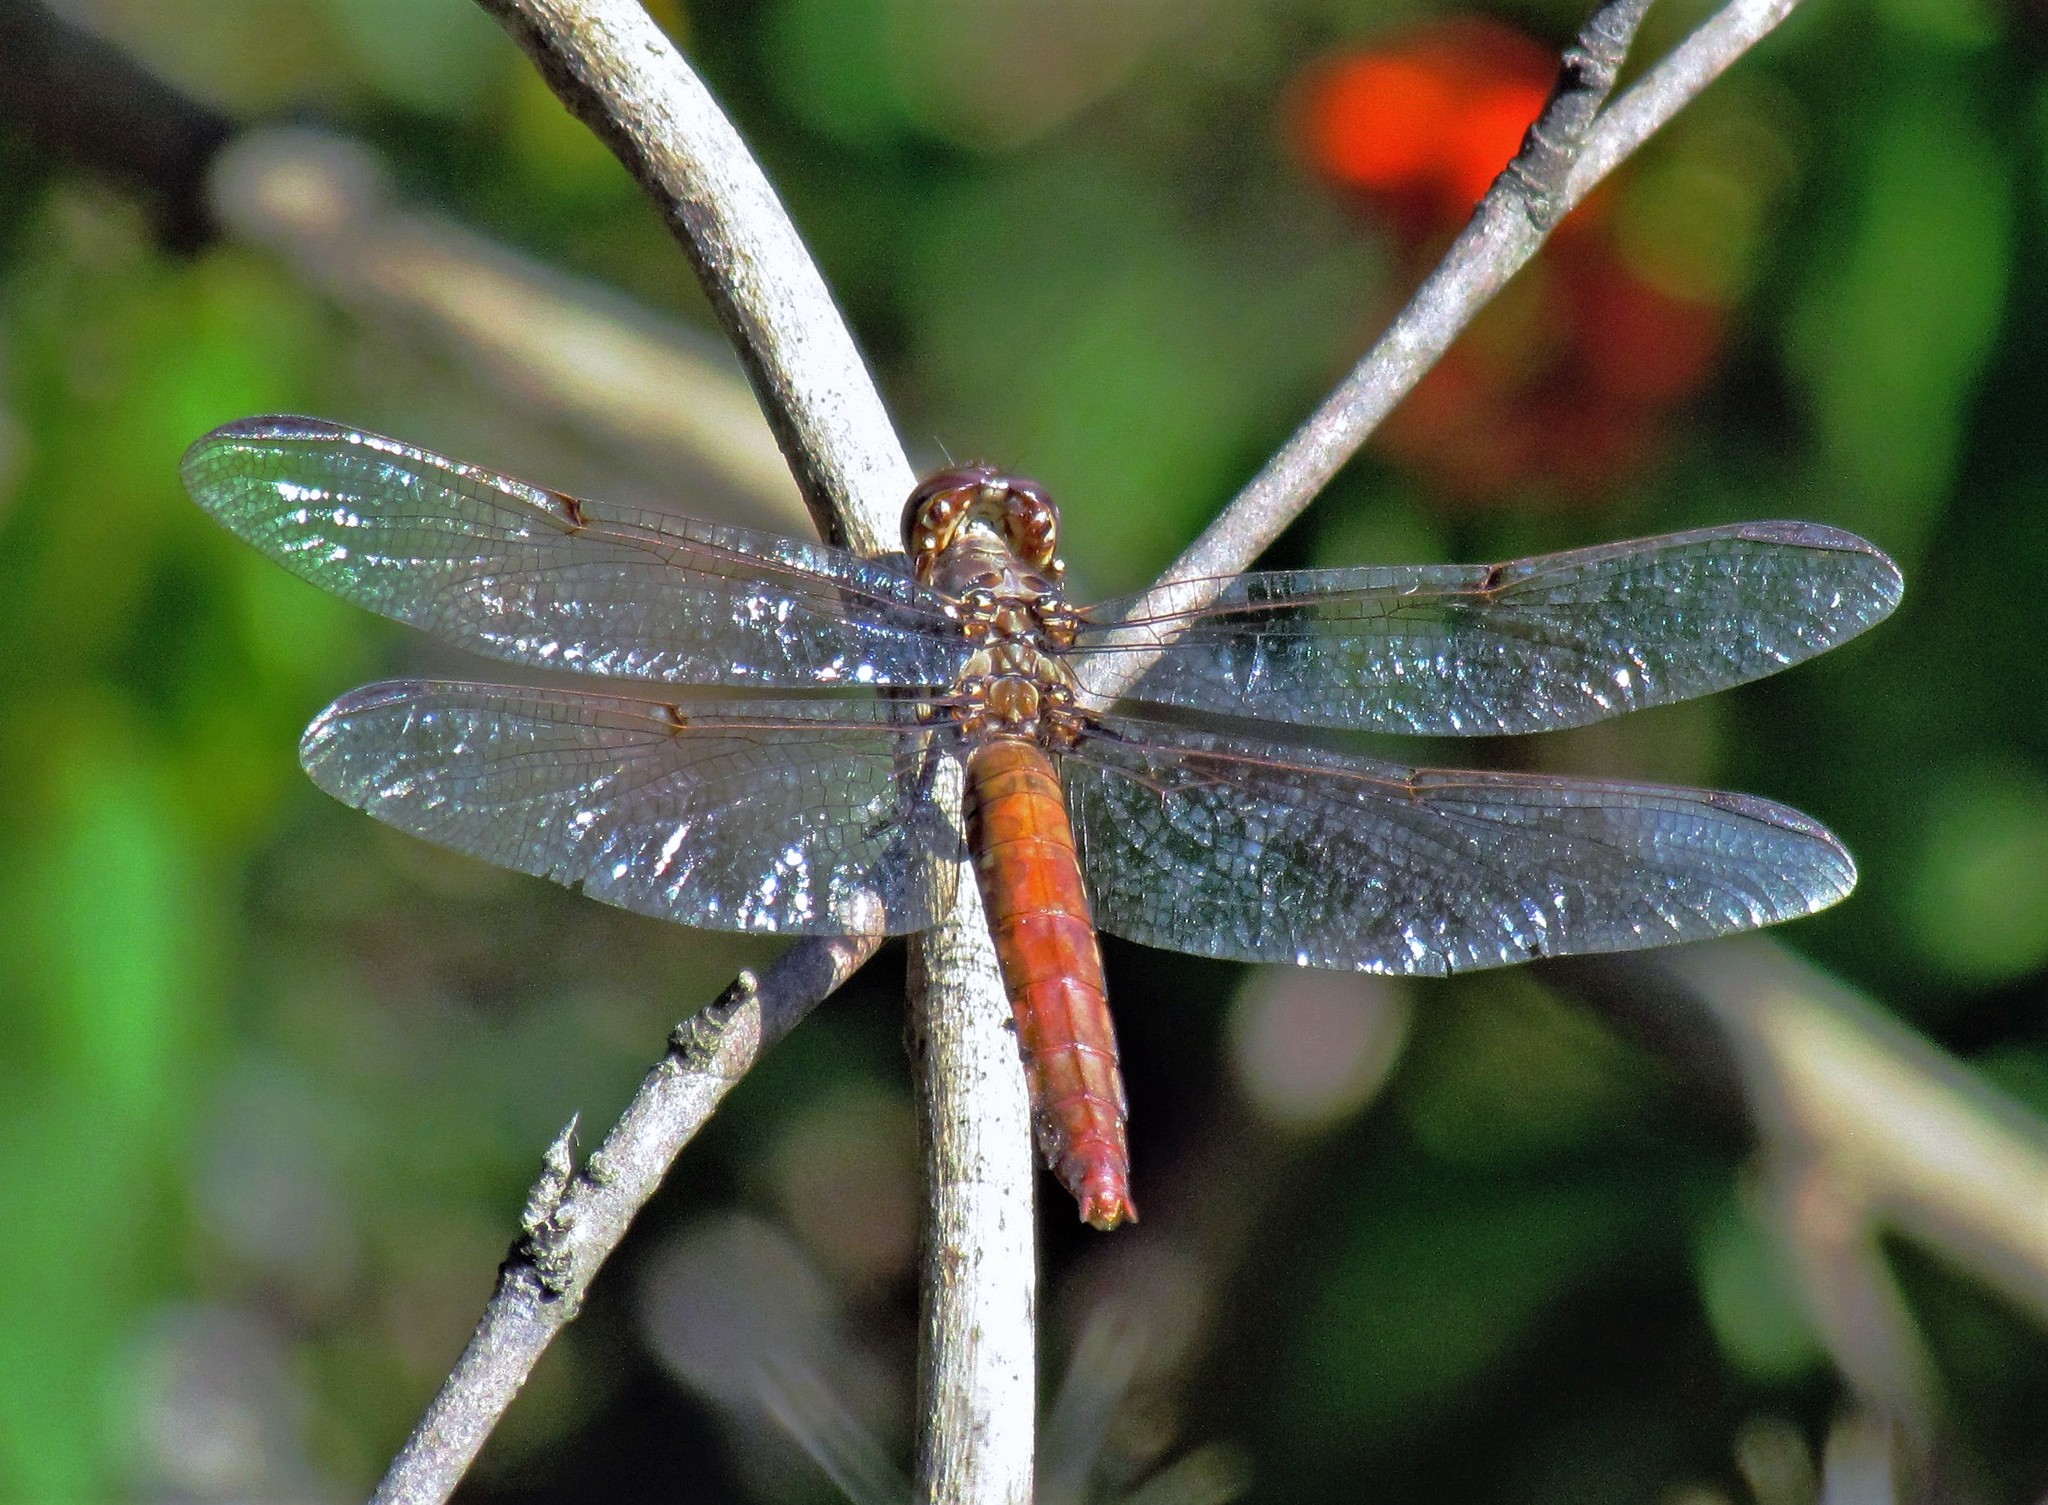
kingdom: Animalia
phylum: Arthropoda
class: Insecta
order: Odonata
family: Libellulidae
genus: Orthemis
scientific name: Orthemis nodiplaga
